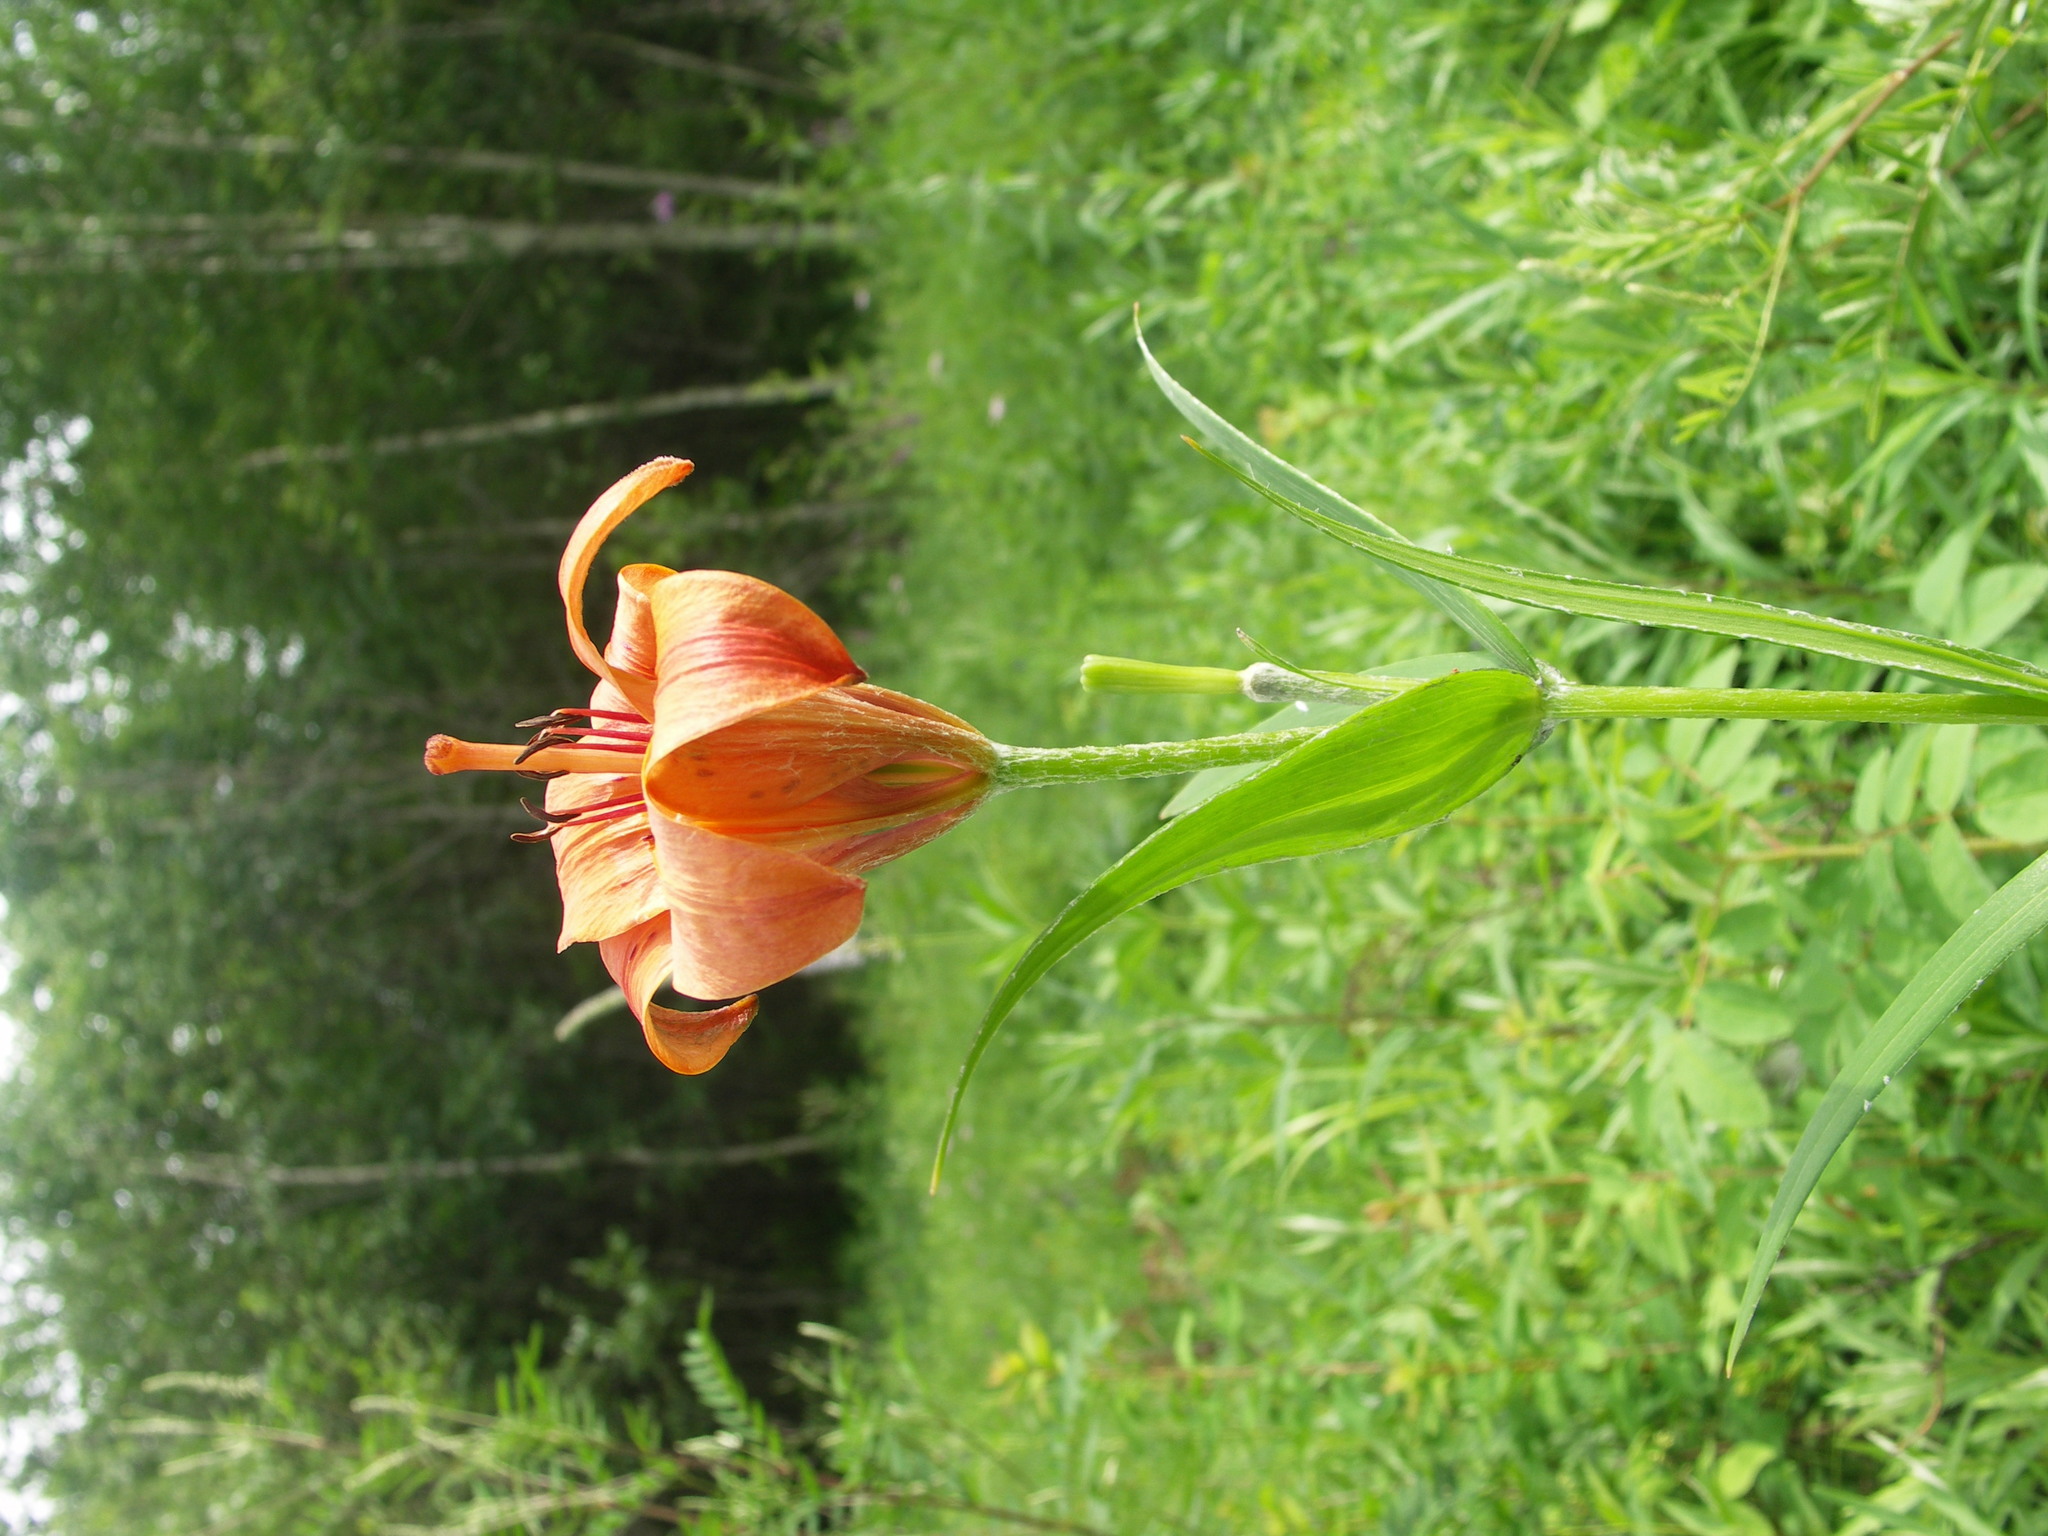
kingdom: Plantae
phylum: Tracheophyta
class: Liliopsida
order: Liliales
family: Liliaceae
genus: Lilium
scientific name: Lilium pensylvanicum
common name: Candlestick lily
